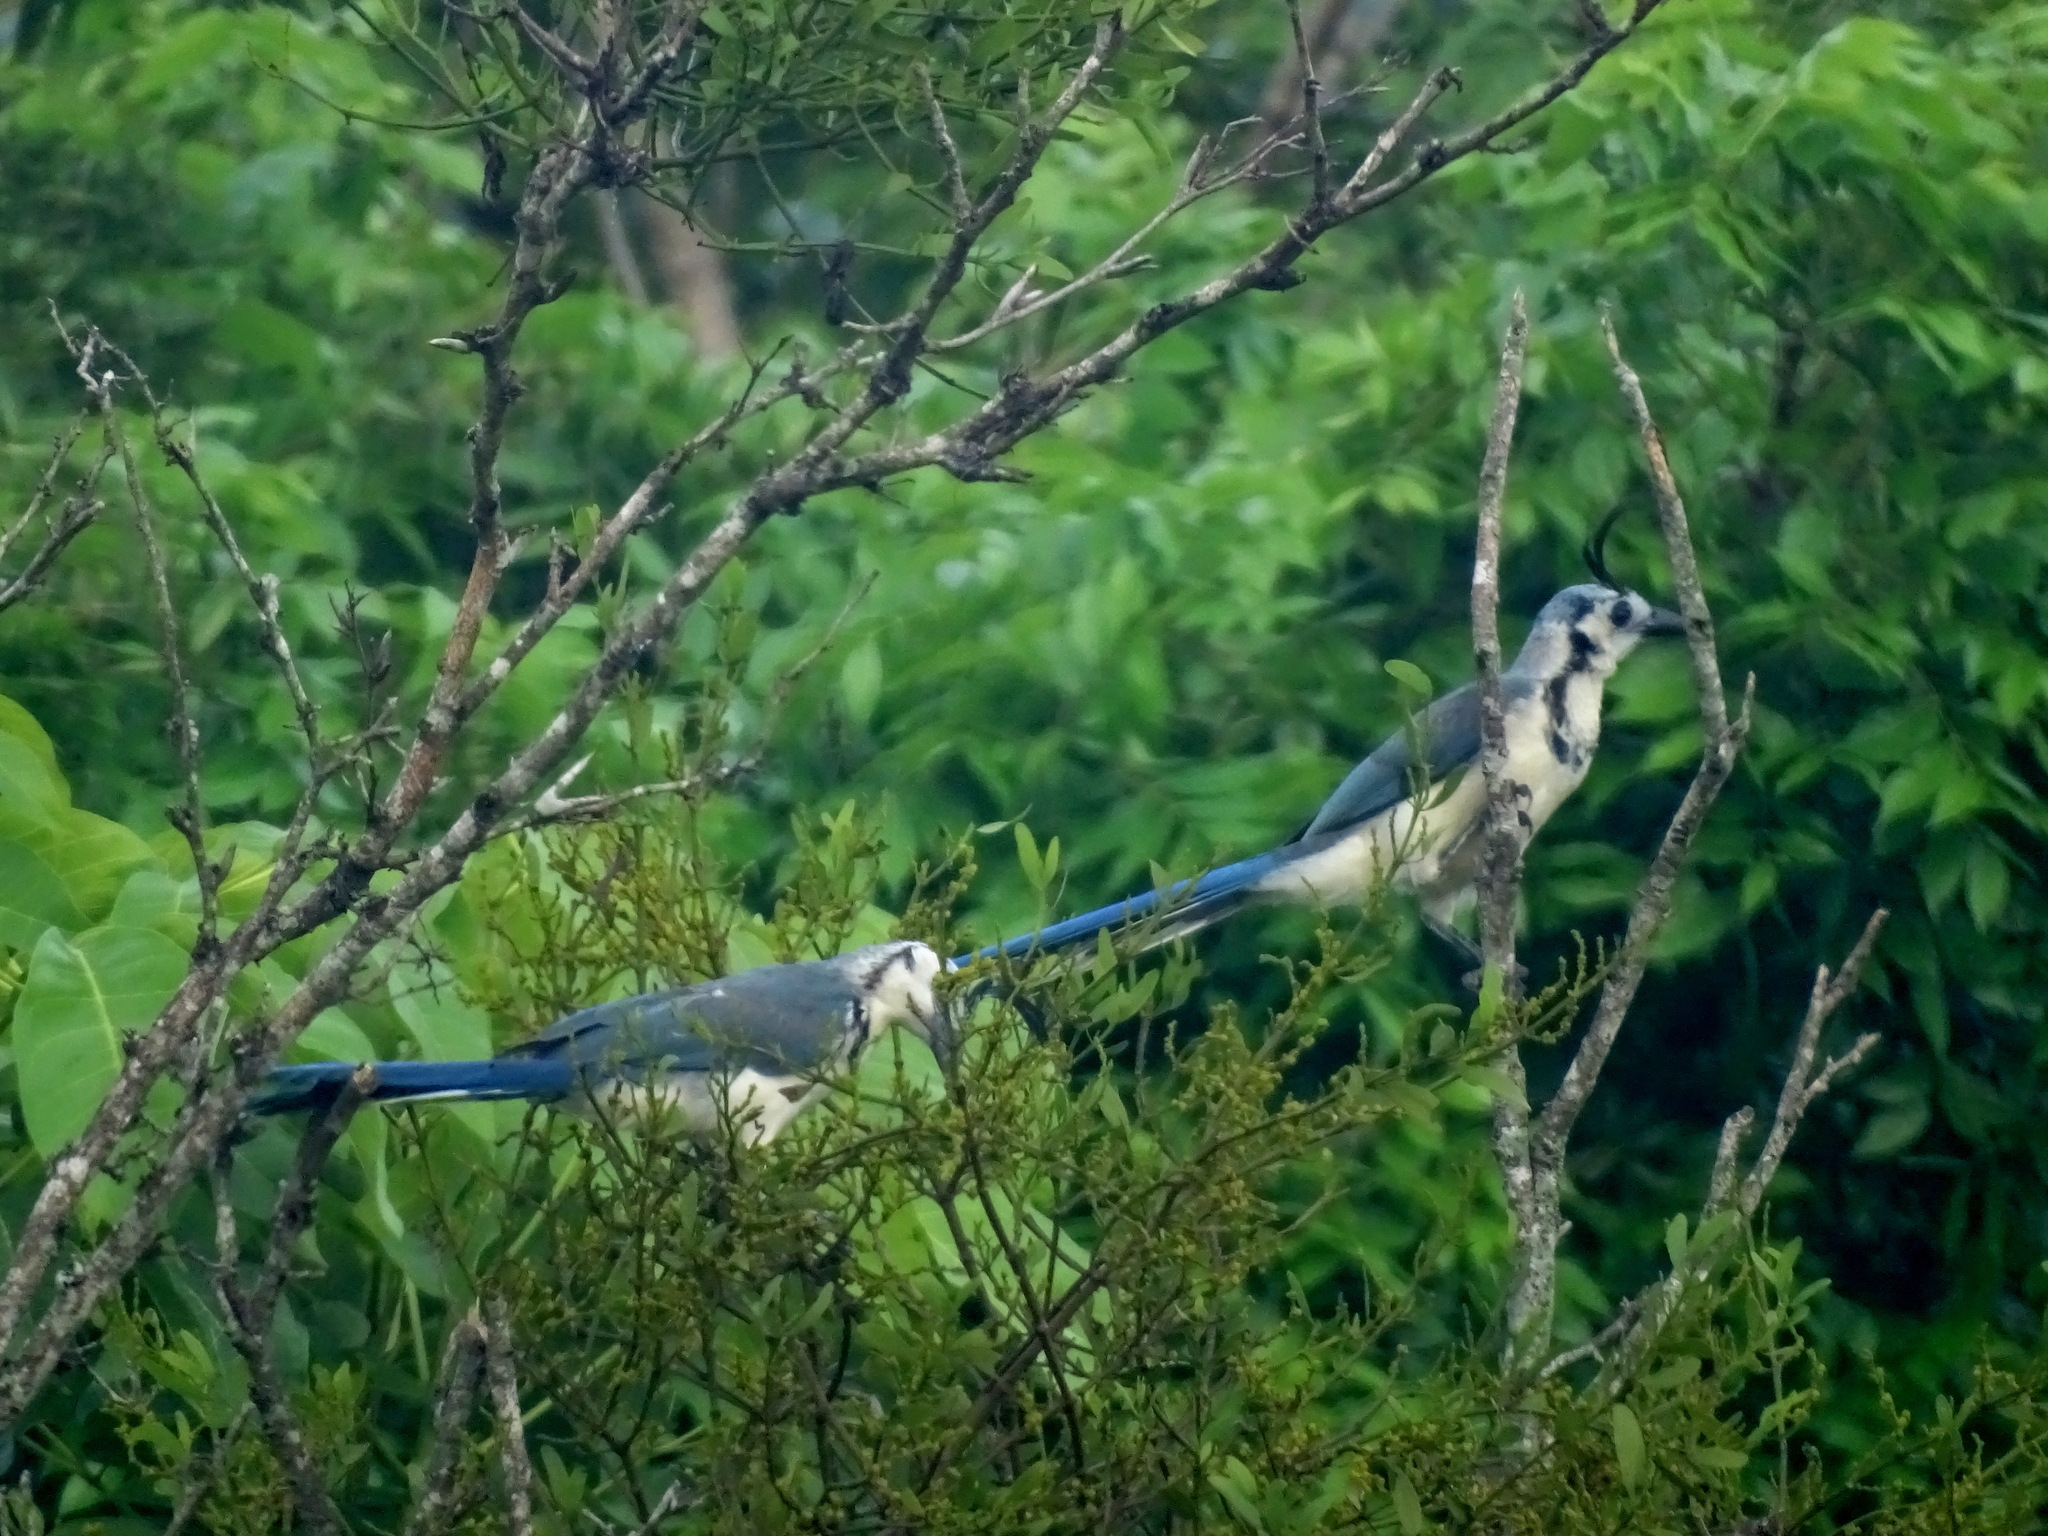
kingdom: Animalia
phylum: Chordata
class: Aves
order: Passeriformes
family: Corvidae
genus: Calocitta
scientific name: Calocitta formosa
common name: White-throated magpie-jay
